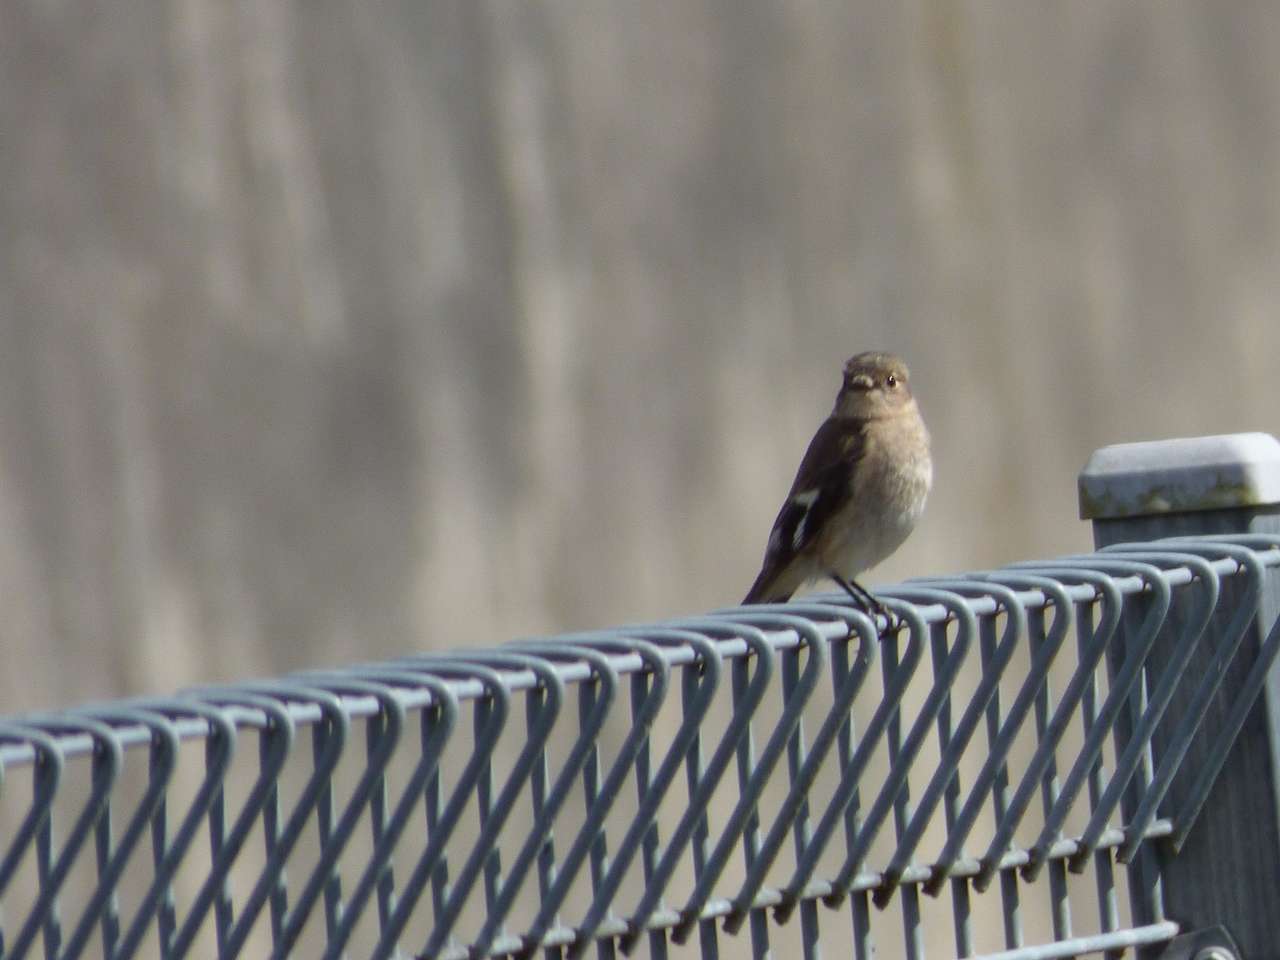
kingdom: Animalia
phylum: Chordata
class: Aves
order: Passeriformes
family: Petroicidae
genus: Petroica
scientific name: Petroica phoenicea
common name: Flame robin
